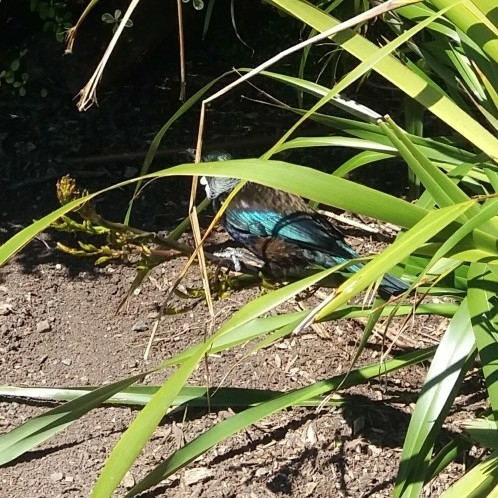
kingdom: Animalia
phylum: Chordata
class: Aves
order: Passeriformes
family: Meliphagidae
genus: Prosthemadera
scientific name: Prosthemadera novaeseelandiae
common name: Tui
